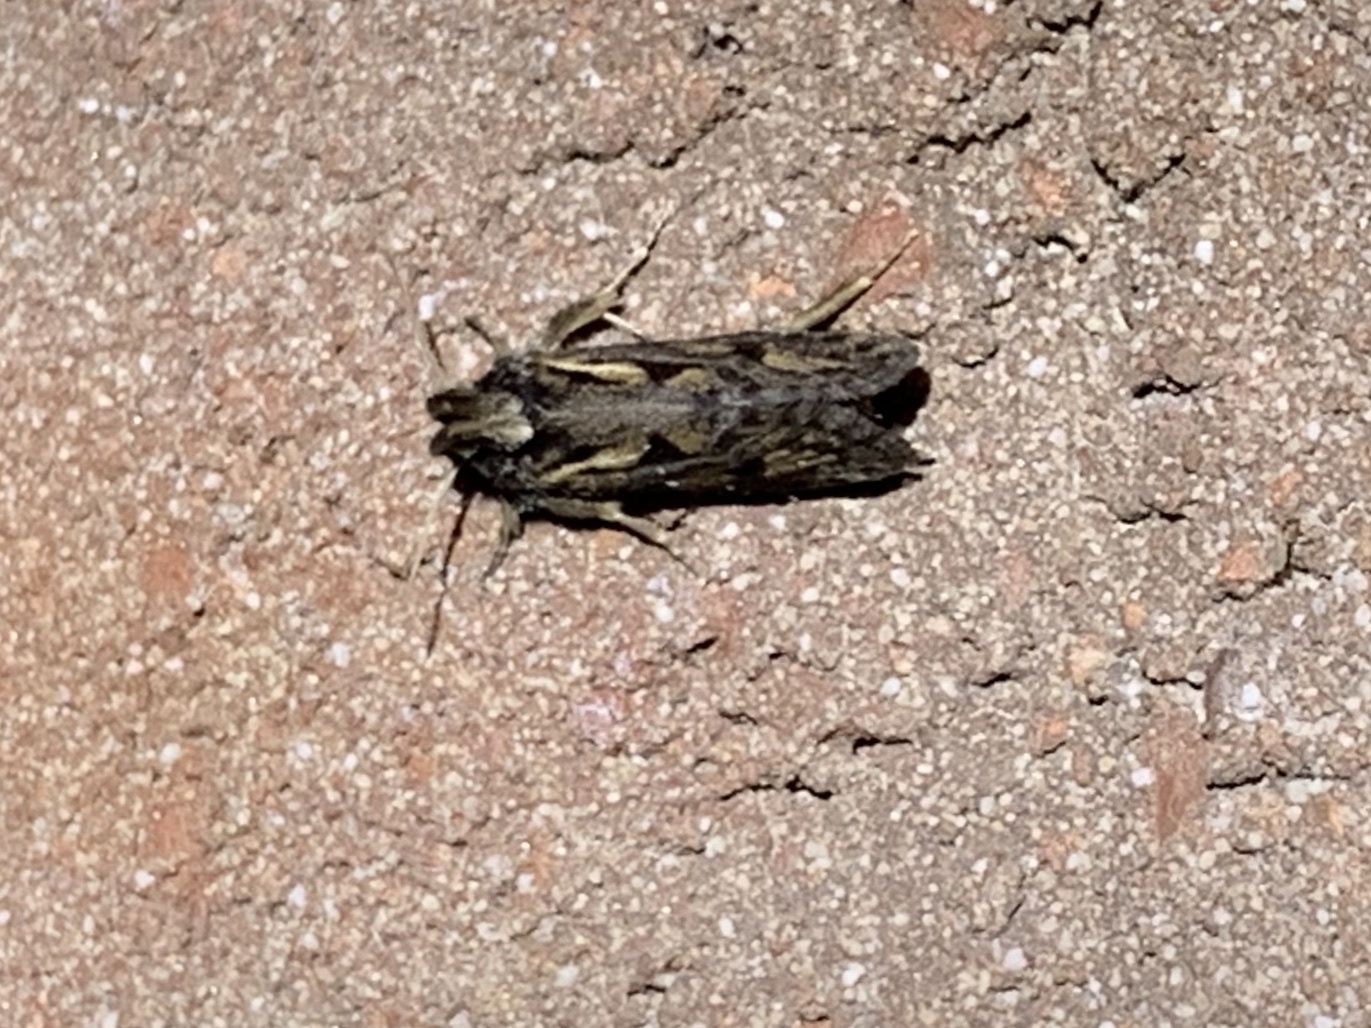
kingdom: Animalia
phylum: Arthropoda
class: Insecta
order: Lepidoptera
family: Tineidae
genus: Acrolophus
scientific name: Acrolophus popeanella
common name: Clemens' grass tubeworm moth
